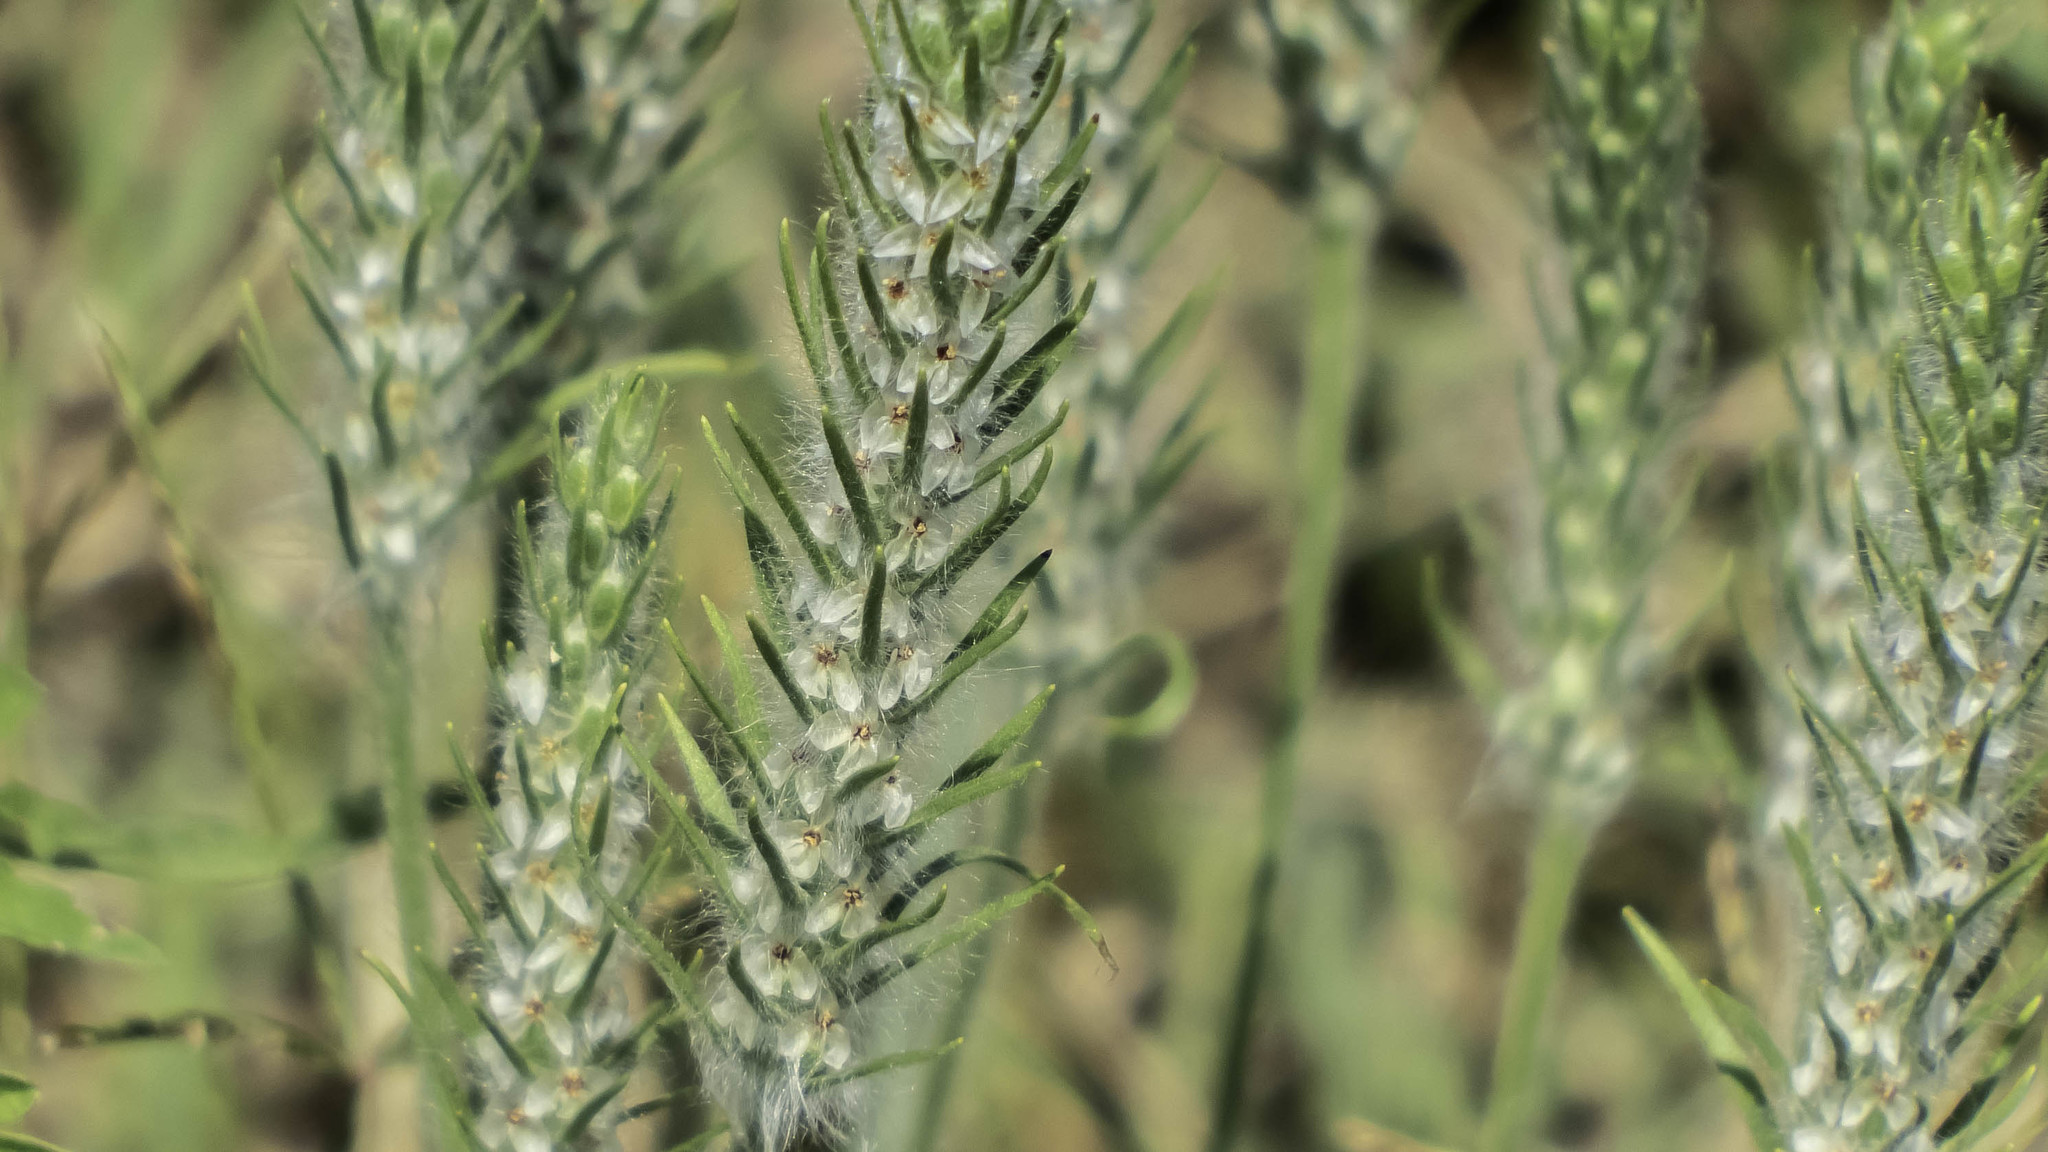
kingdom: Plantae
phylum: Tracheophyta
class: Magnoliopsida
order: Lamiales
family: Plantaginaceae
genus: Plantago
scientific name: Plantago aristata
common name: Bracted plantain
